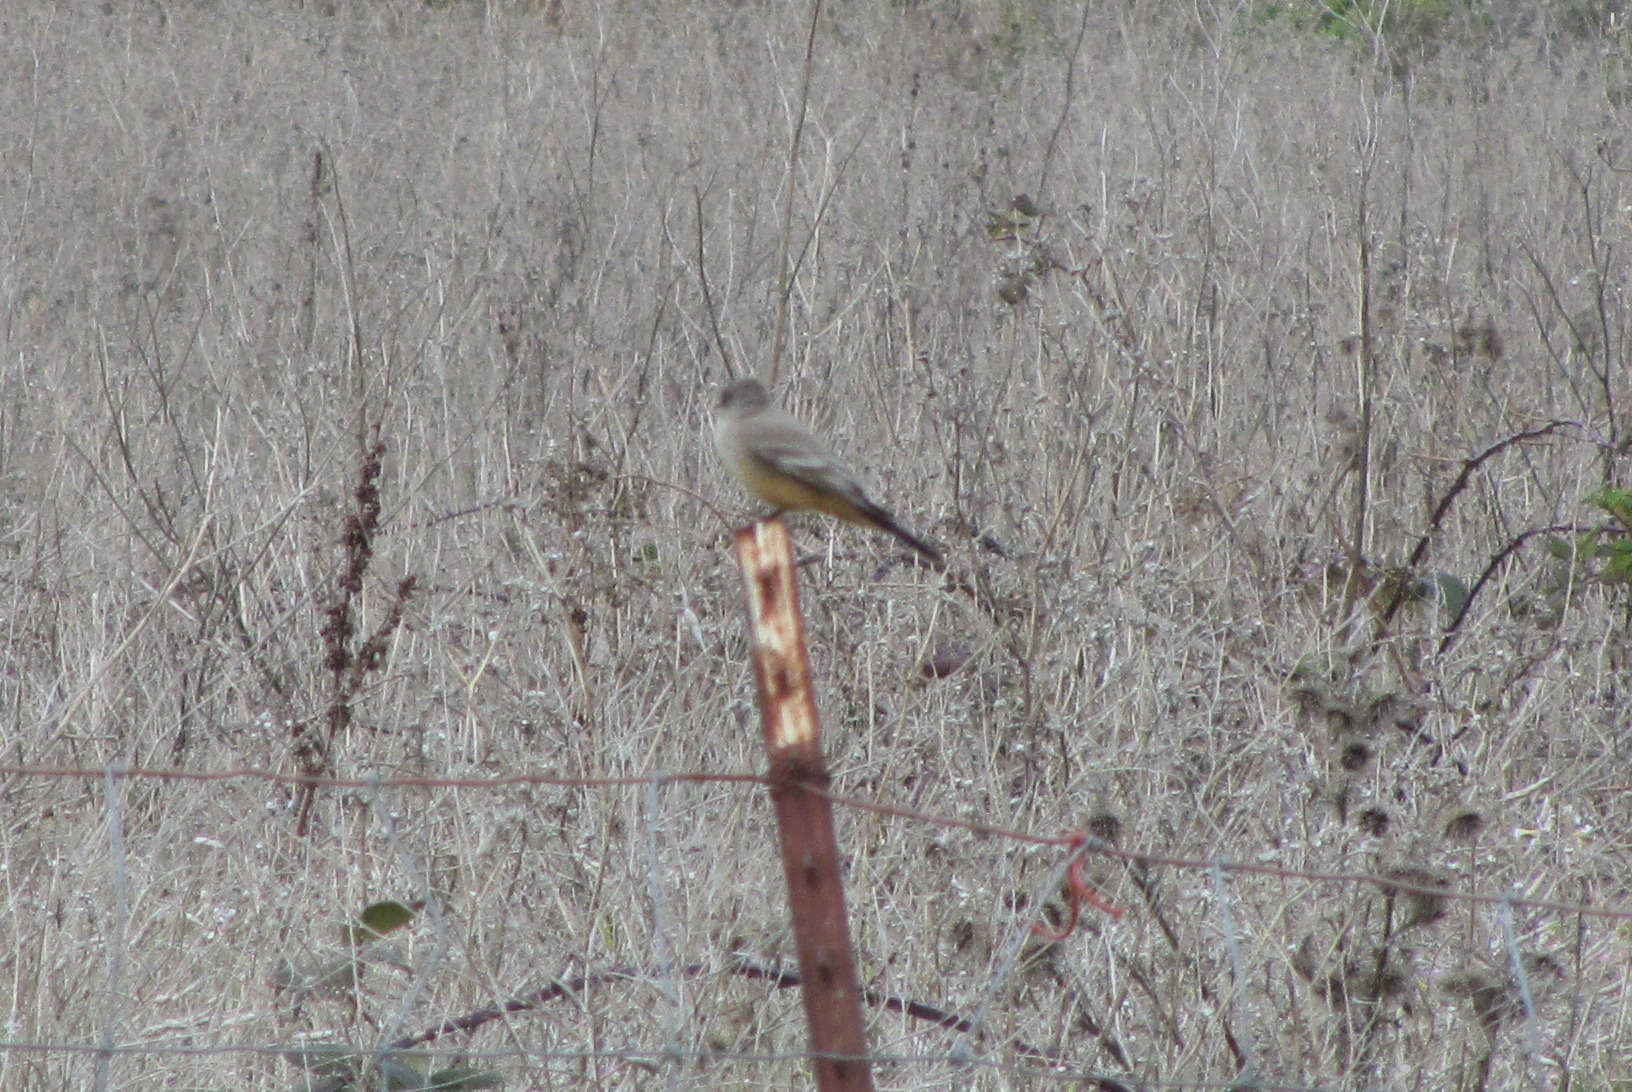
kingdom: Animalia
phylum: Chordata
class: Aves
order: Passeriformes
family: Tyrannidae
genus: Sayornis
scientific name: Sayornis saya
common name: Say's phoebe
